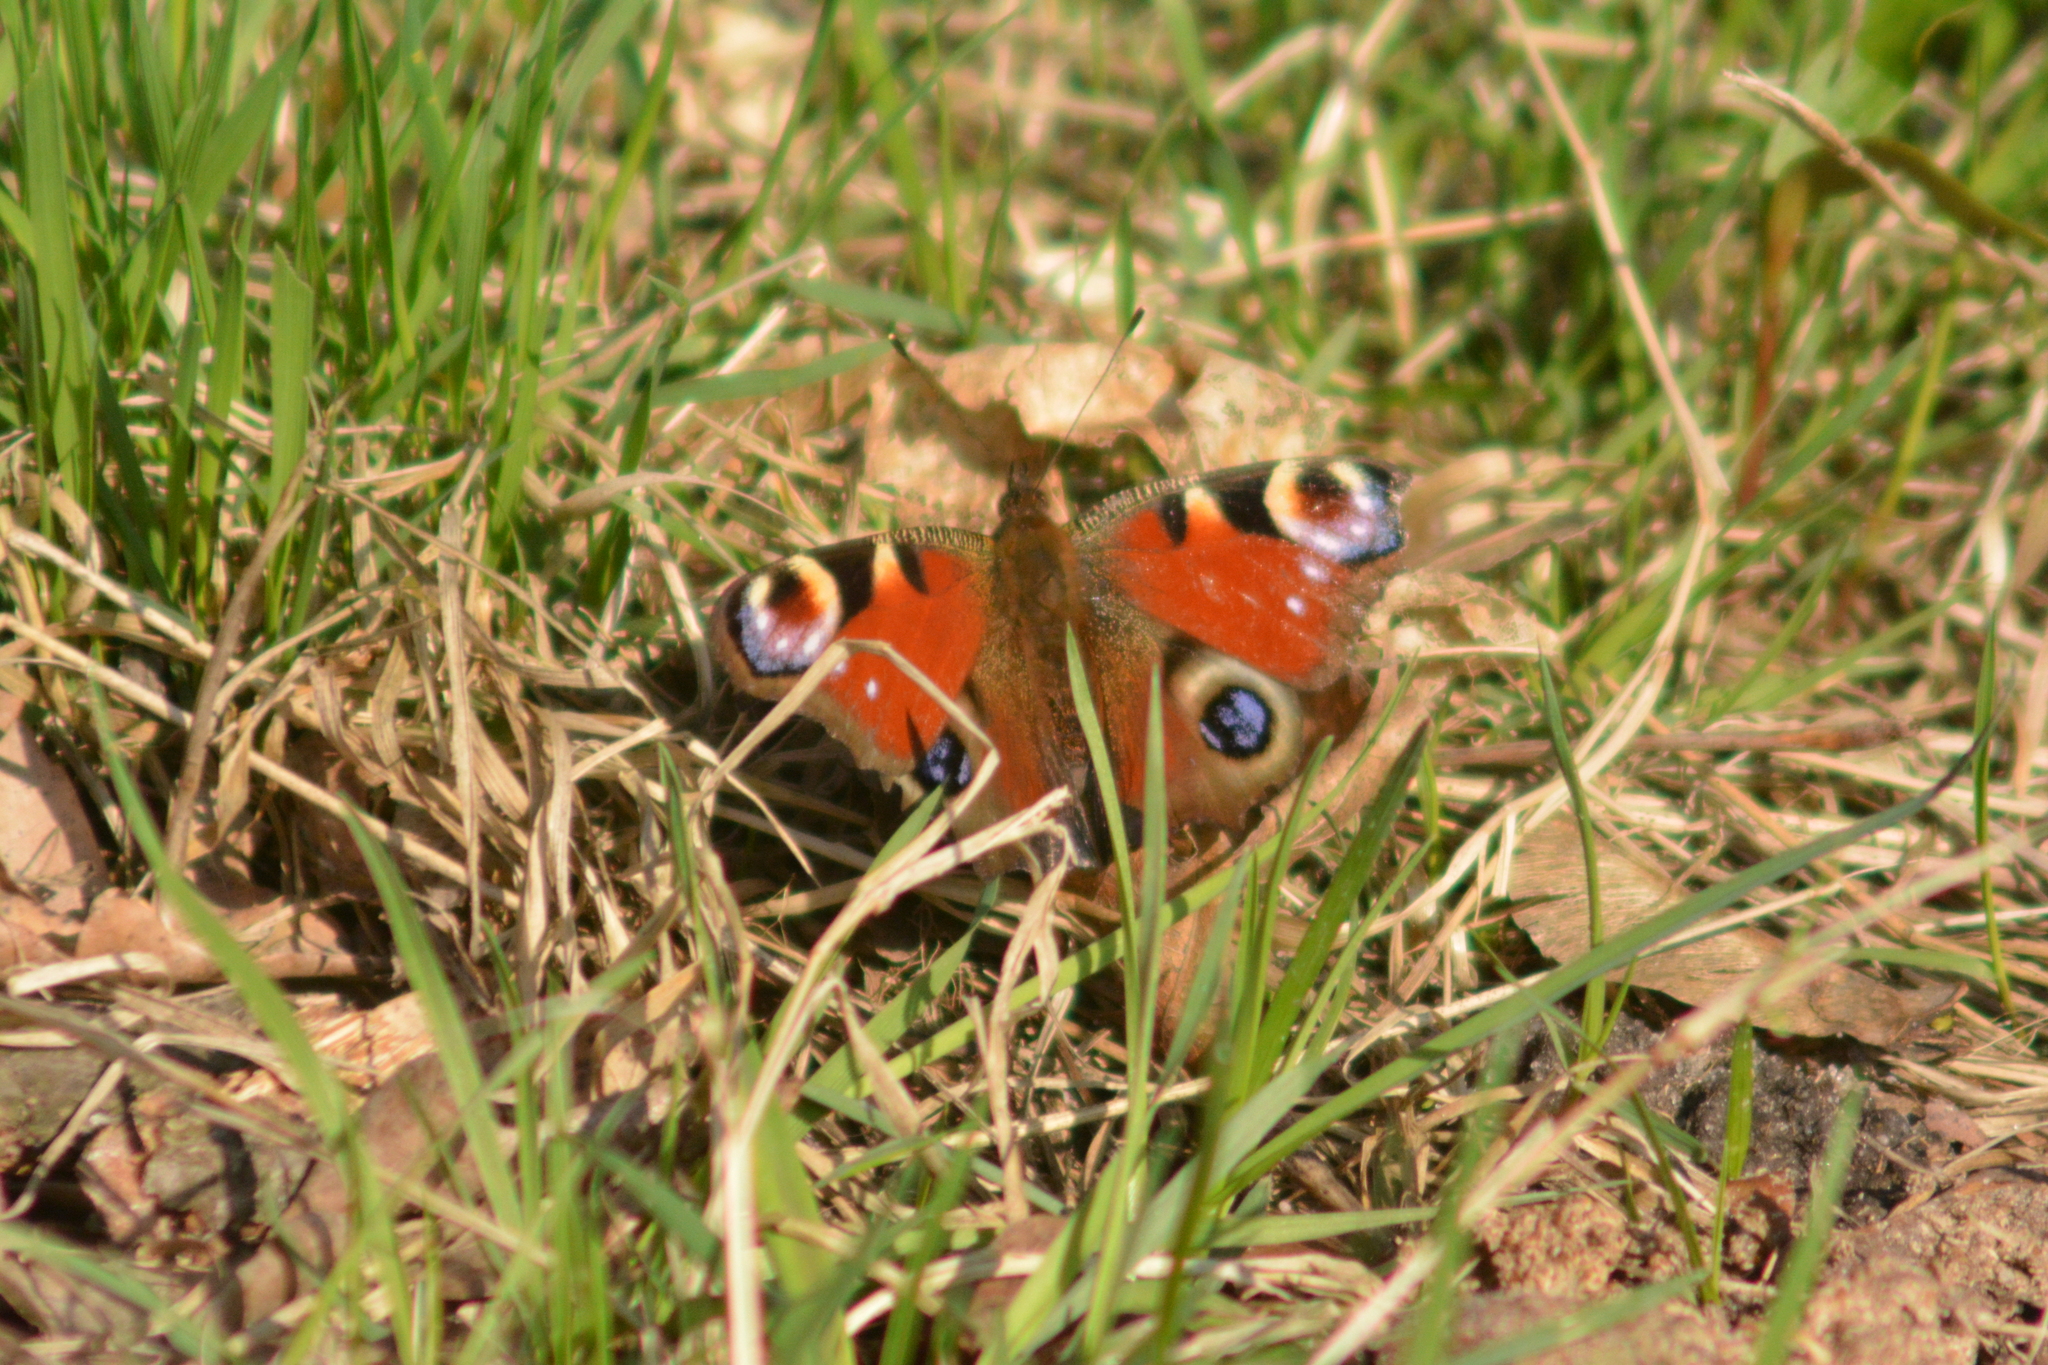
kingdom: Animalia
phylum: Arthropoda
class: Insecta
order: Lepidoptera
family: Nymphalidae
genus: Aglais
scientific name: Aglais io
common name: Peacock
